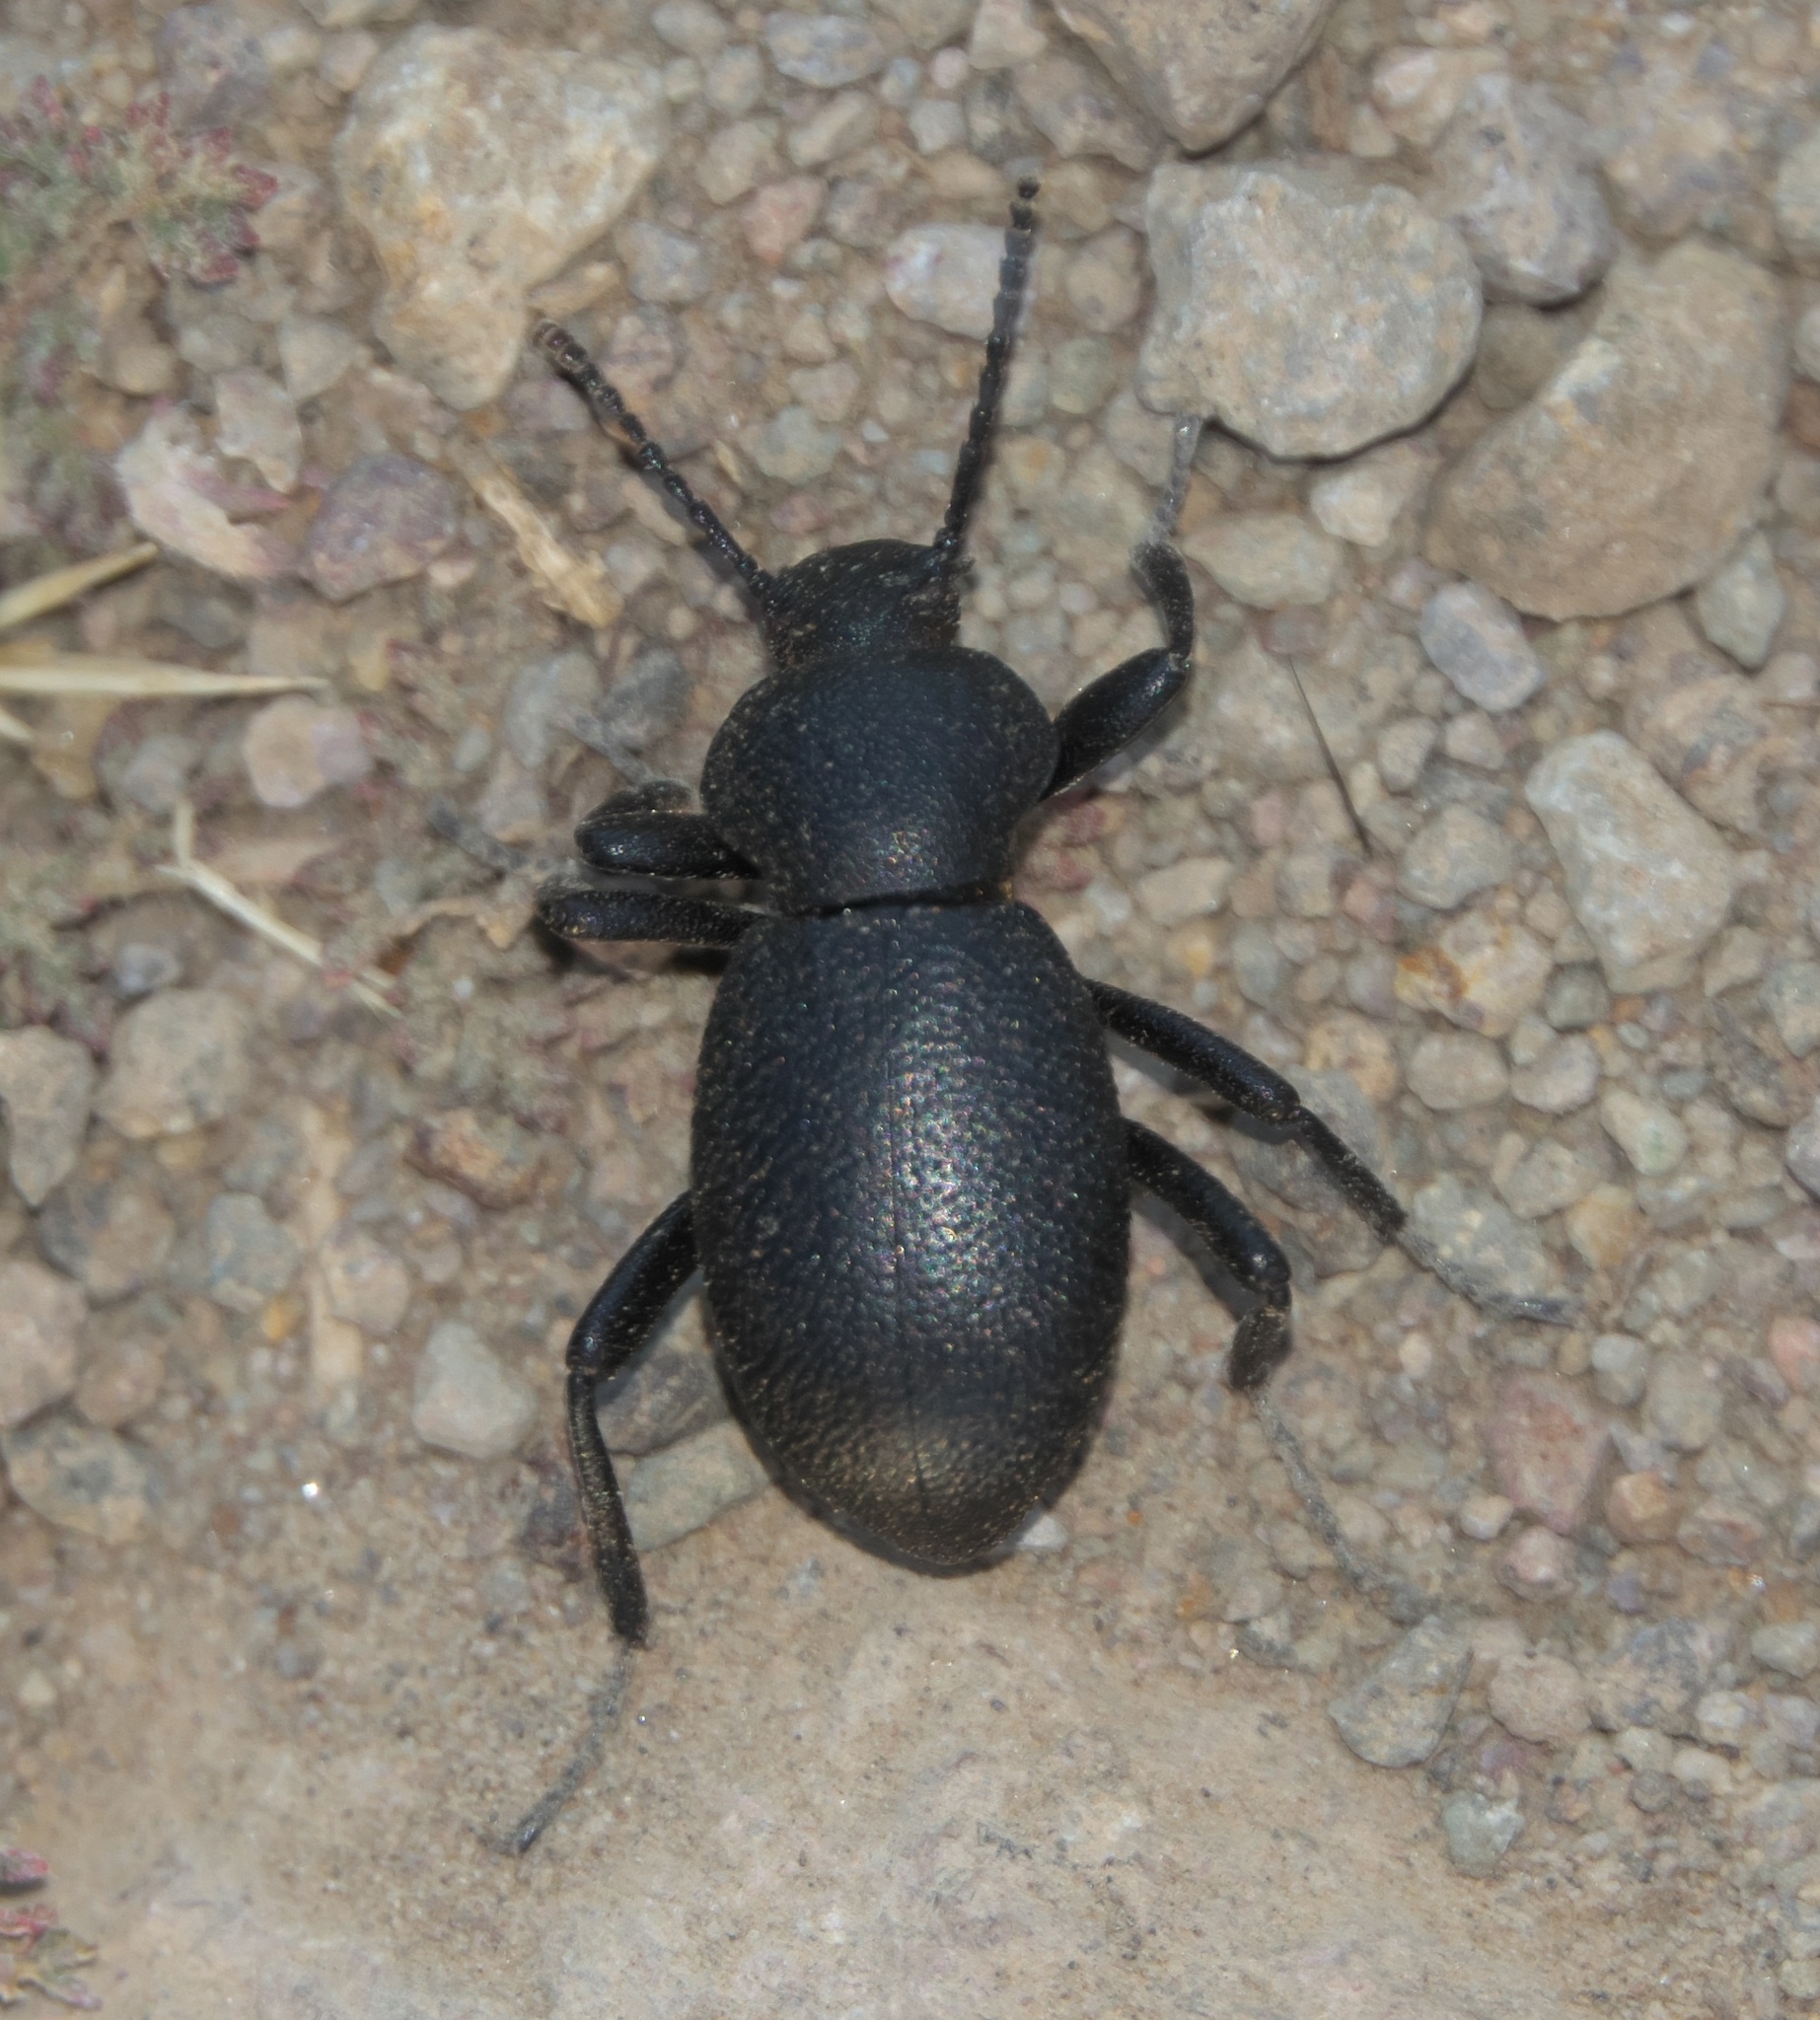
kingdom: Animalia
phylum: Arthropoda
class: Insecta
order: Coleoptera
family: Tenebrionidae
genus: Eleodes
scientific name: Eleodes cordata
